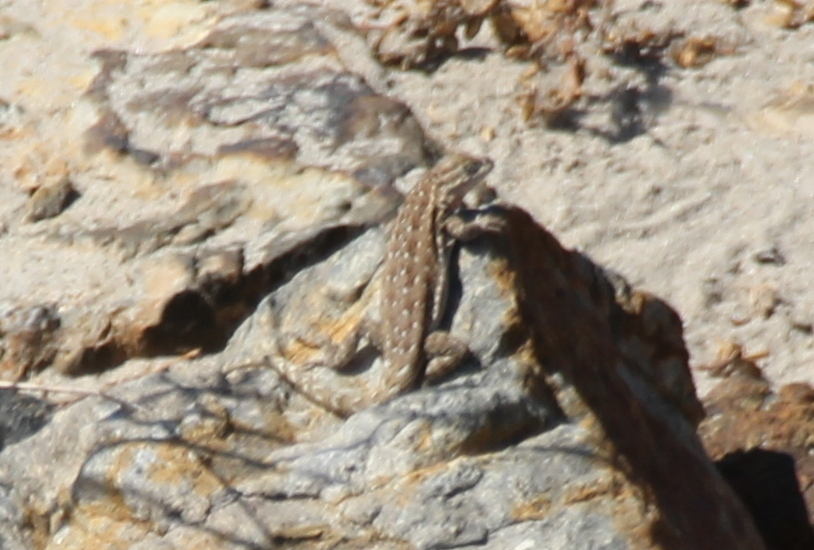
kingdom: Animalia
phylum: Chordata
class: Squamata
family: Phrynosomatidae
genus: Uta
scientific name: Uta stansburiana
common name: Side-blotched lizard
